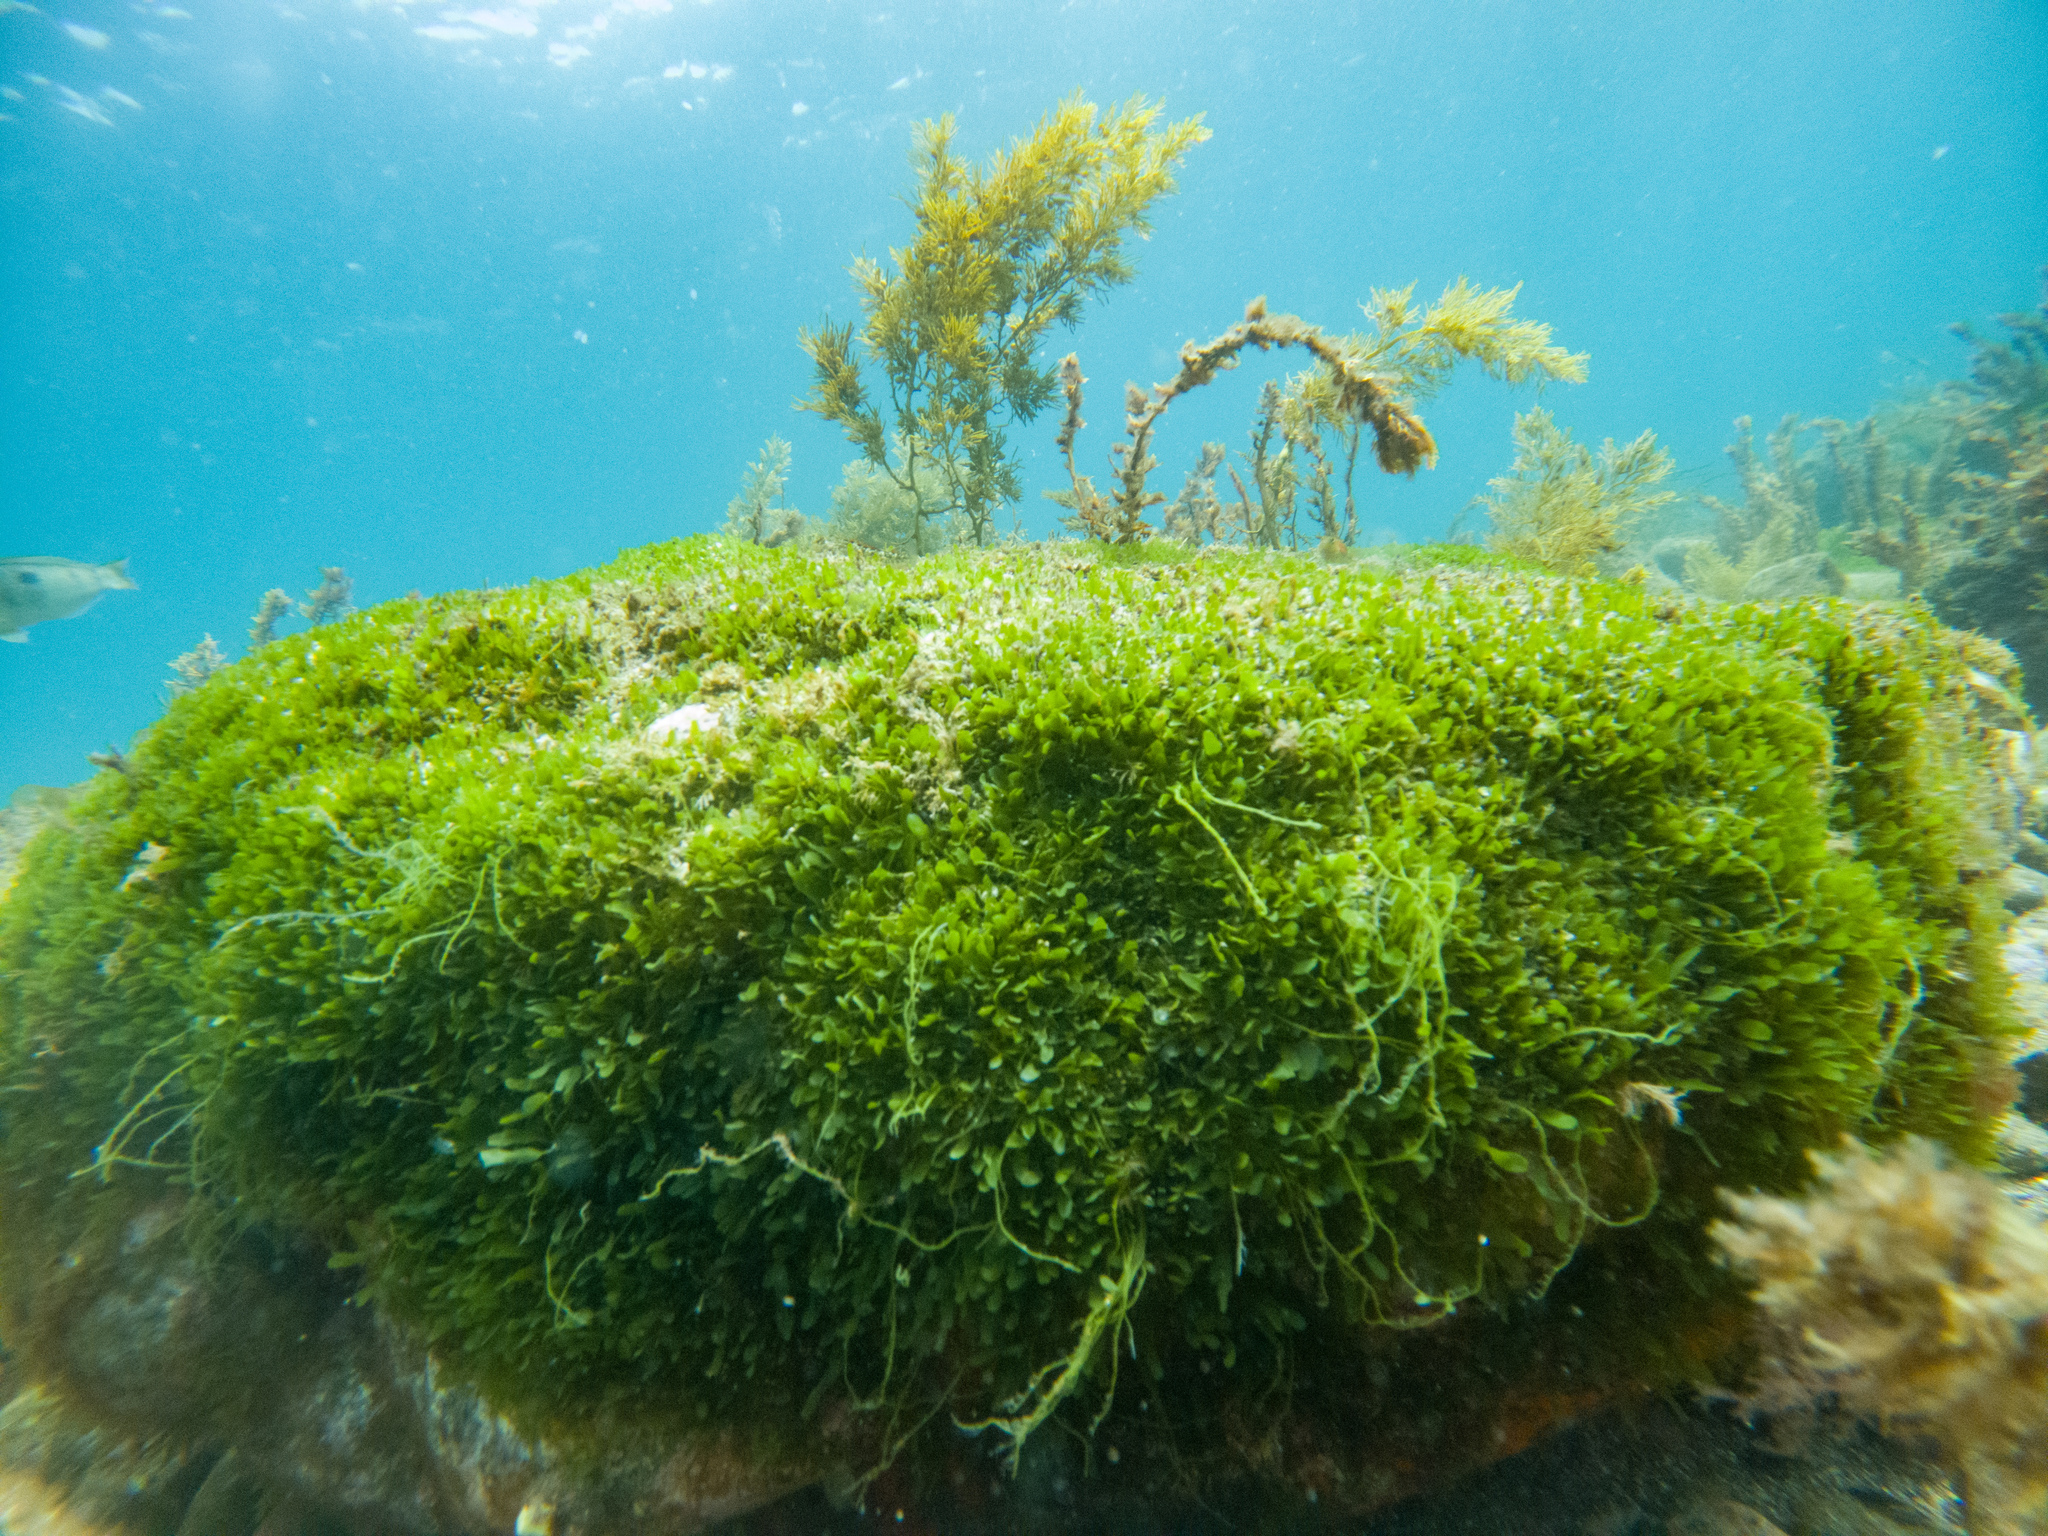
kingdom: Plantae
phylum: Chlorophyta
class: Ulvophyceae
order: Bryopsidales
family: Caulerpaceae
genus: Caulerpa
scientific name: Caulerpa brachypus
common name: Macroalgae
